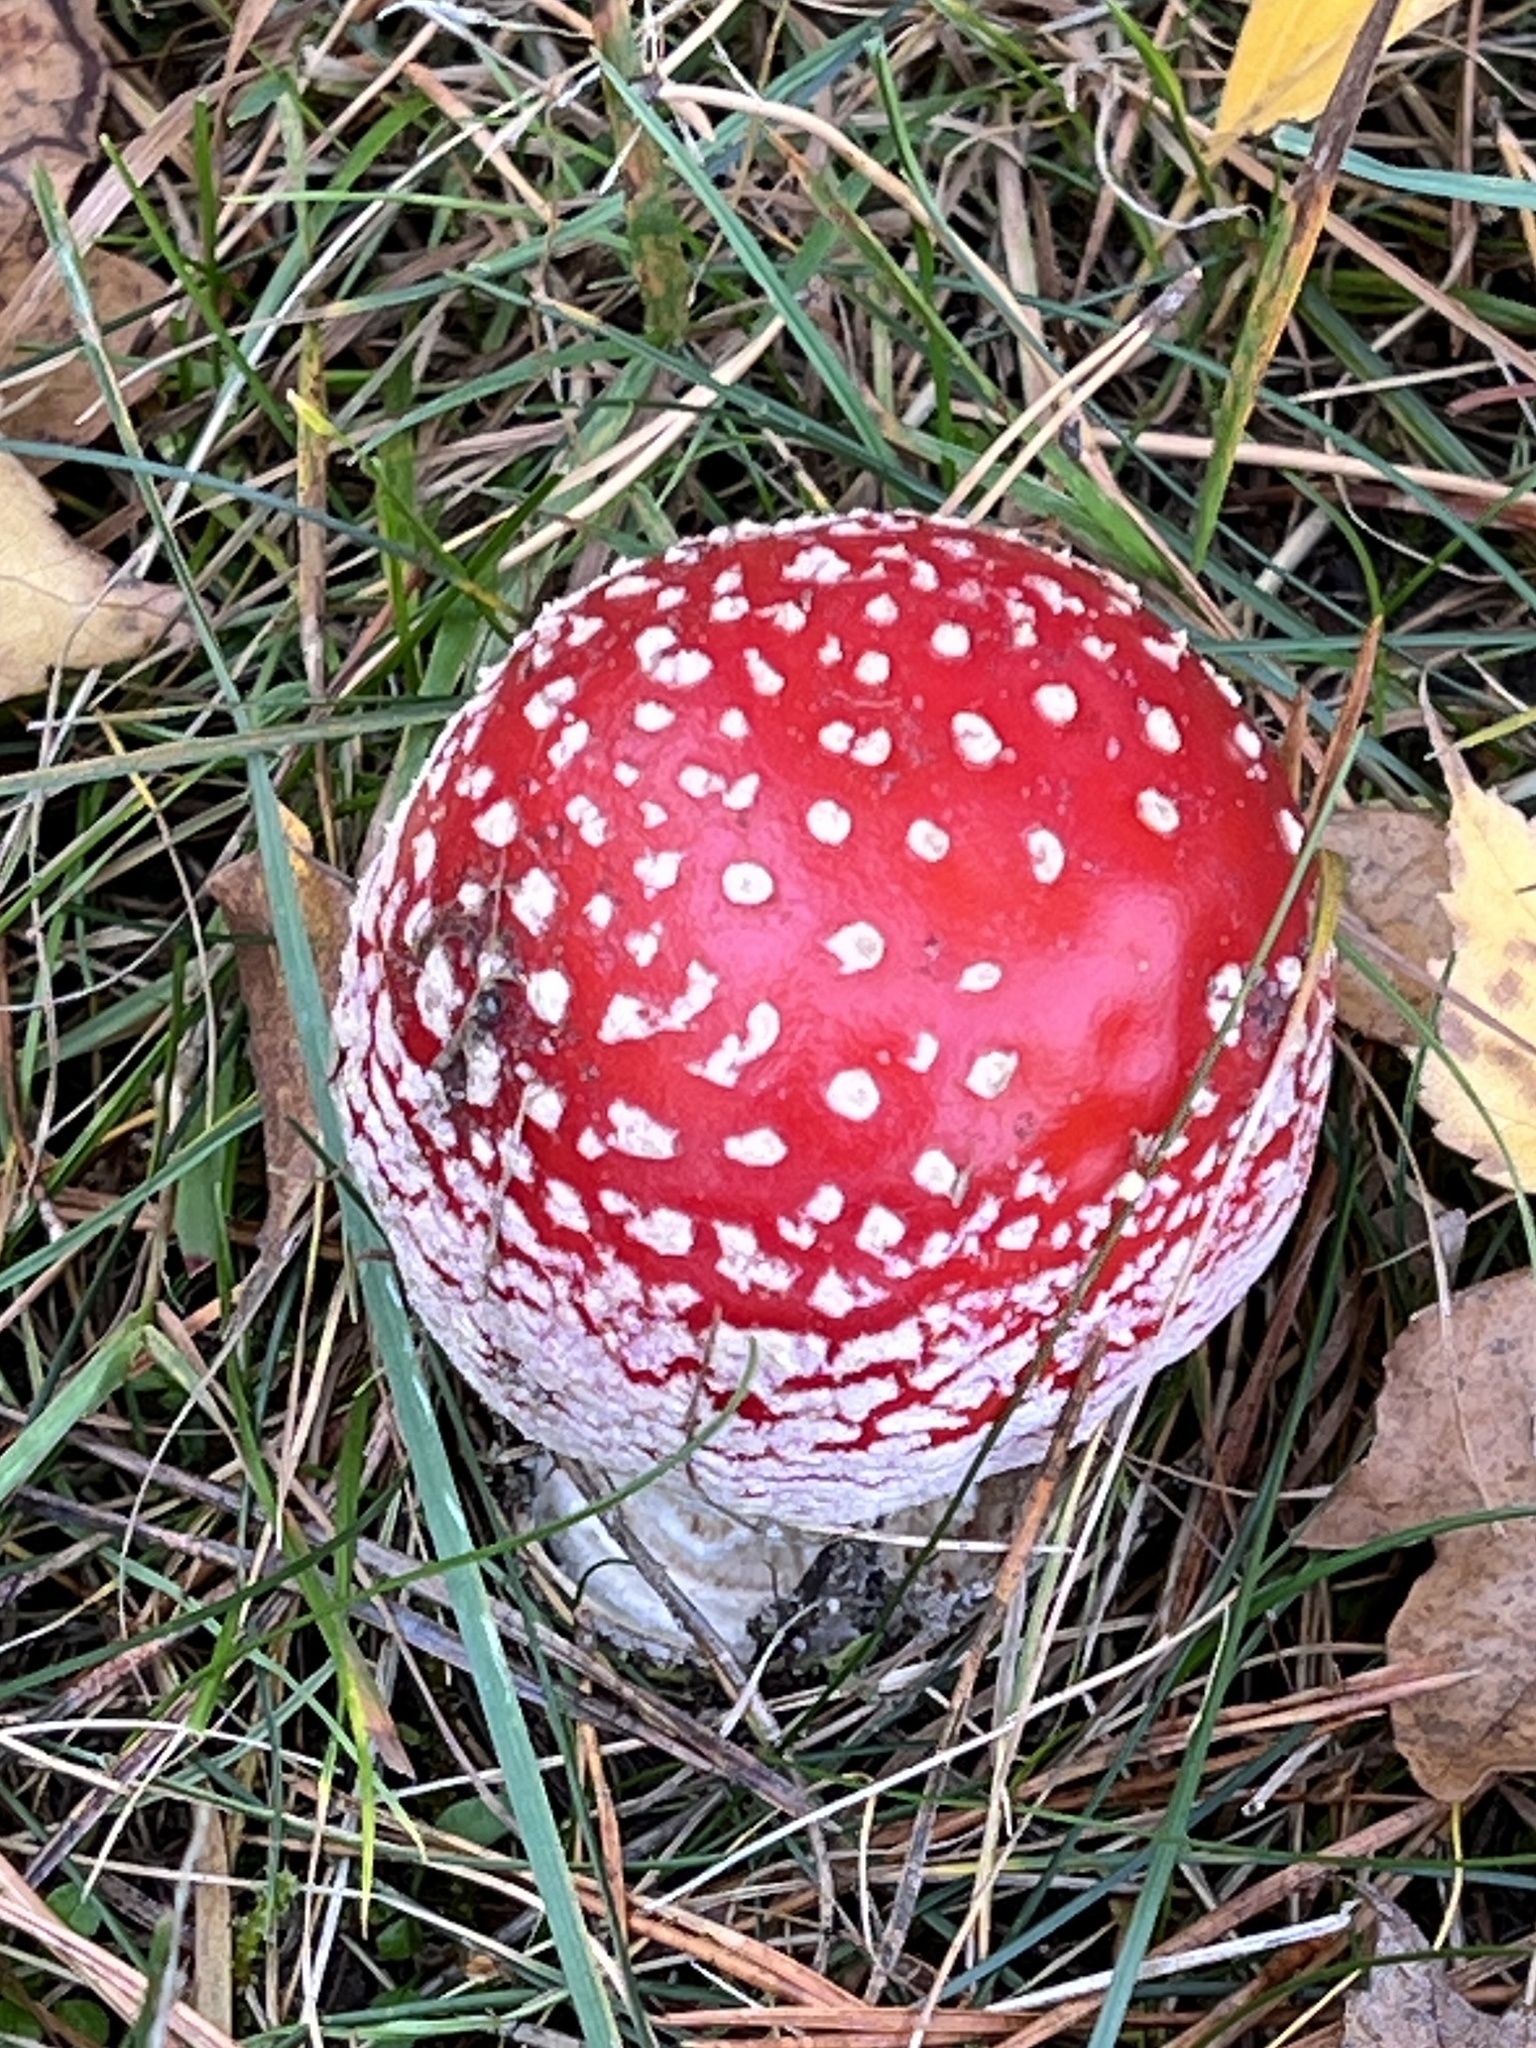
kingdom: Fungi
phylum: Basidiomycota
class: Agaricomycetes
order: Agaricales
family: Amanitaceae
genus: Amanita
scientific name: Amanita muscaria
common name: Fly agaric
